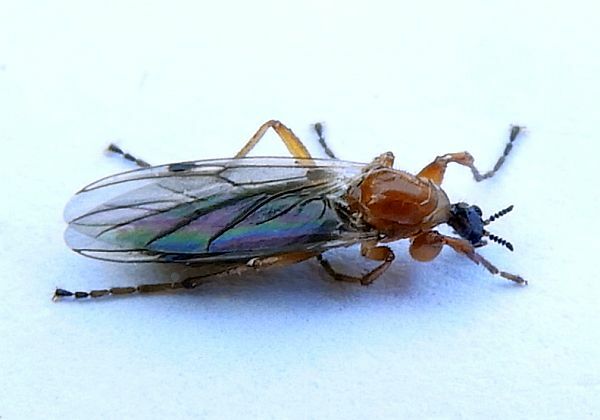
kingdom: Animalia
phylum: Arthropoda
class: Insecta
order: Diptera
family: Bibionidae
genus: Bibio
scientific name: Bibio townesi
